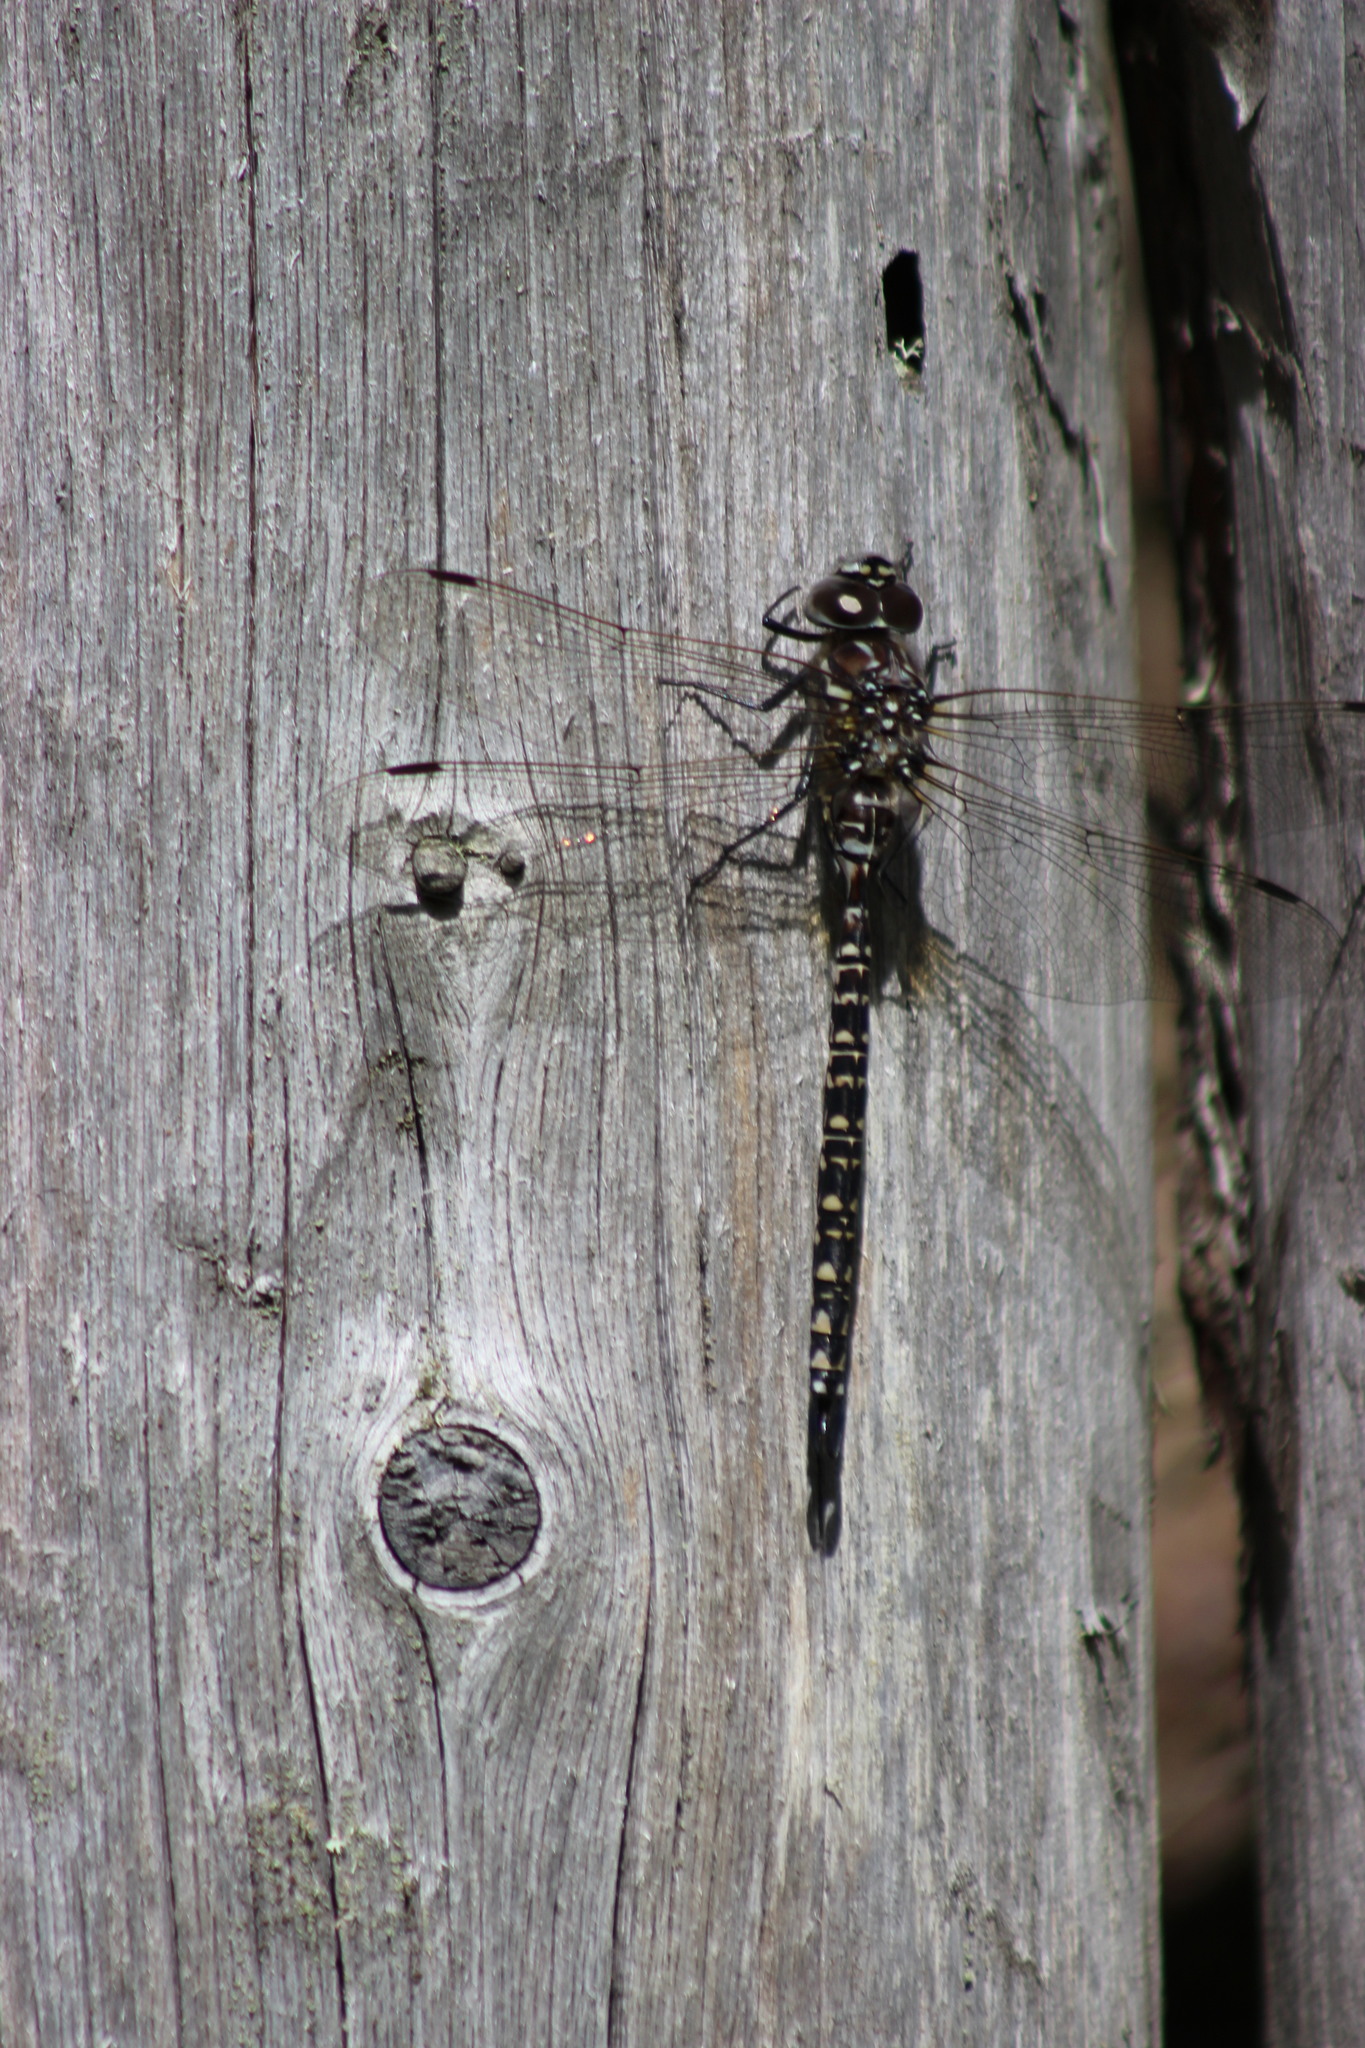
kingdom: Animalia
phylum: Arthropoda
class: Insecta
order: Odonata
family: Aeshnidae
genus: Aeshna
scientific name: Aeshna subarctica
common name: Subarctic darner
